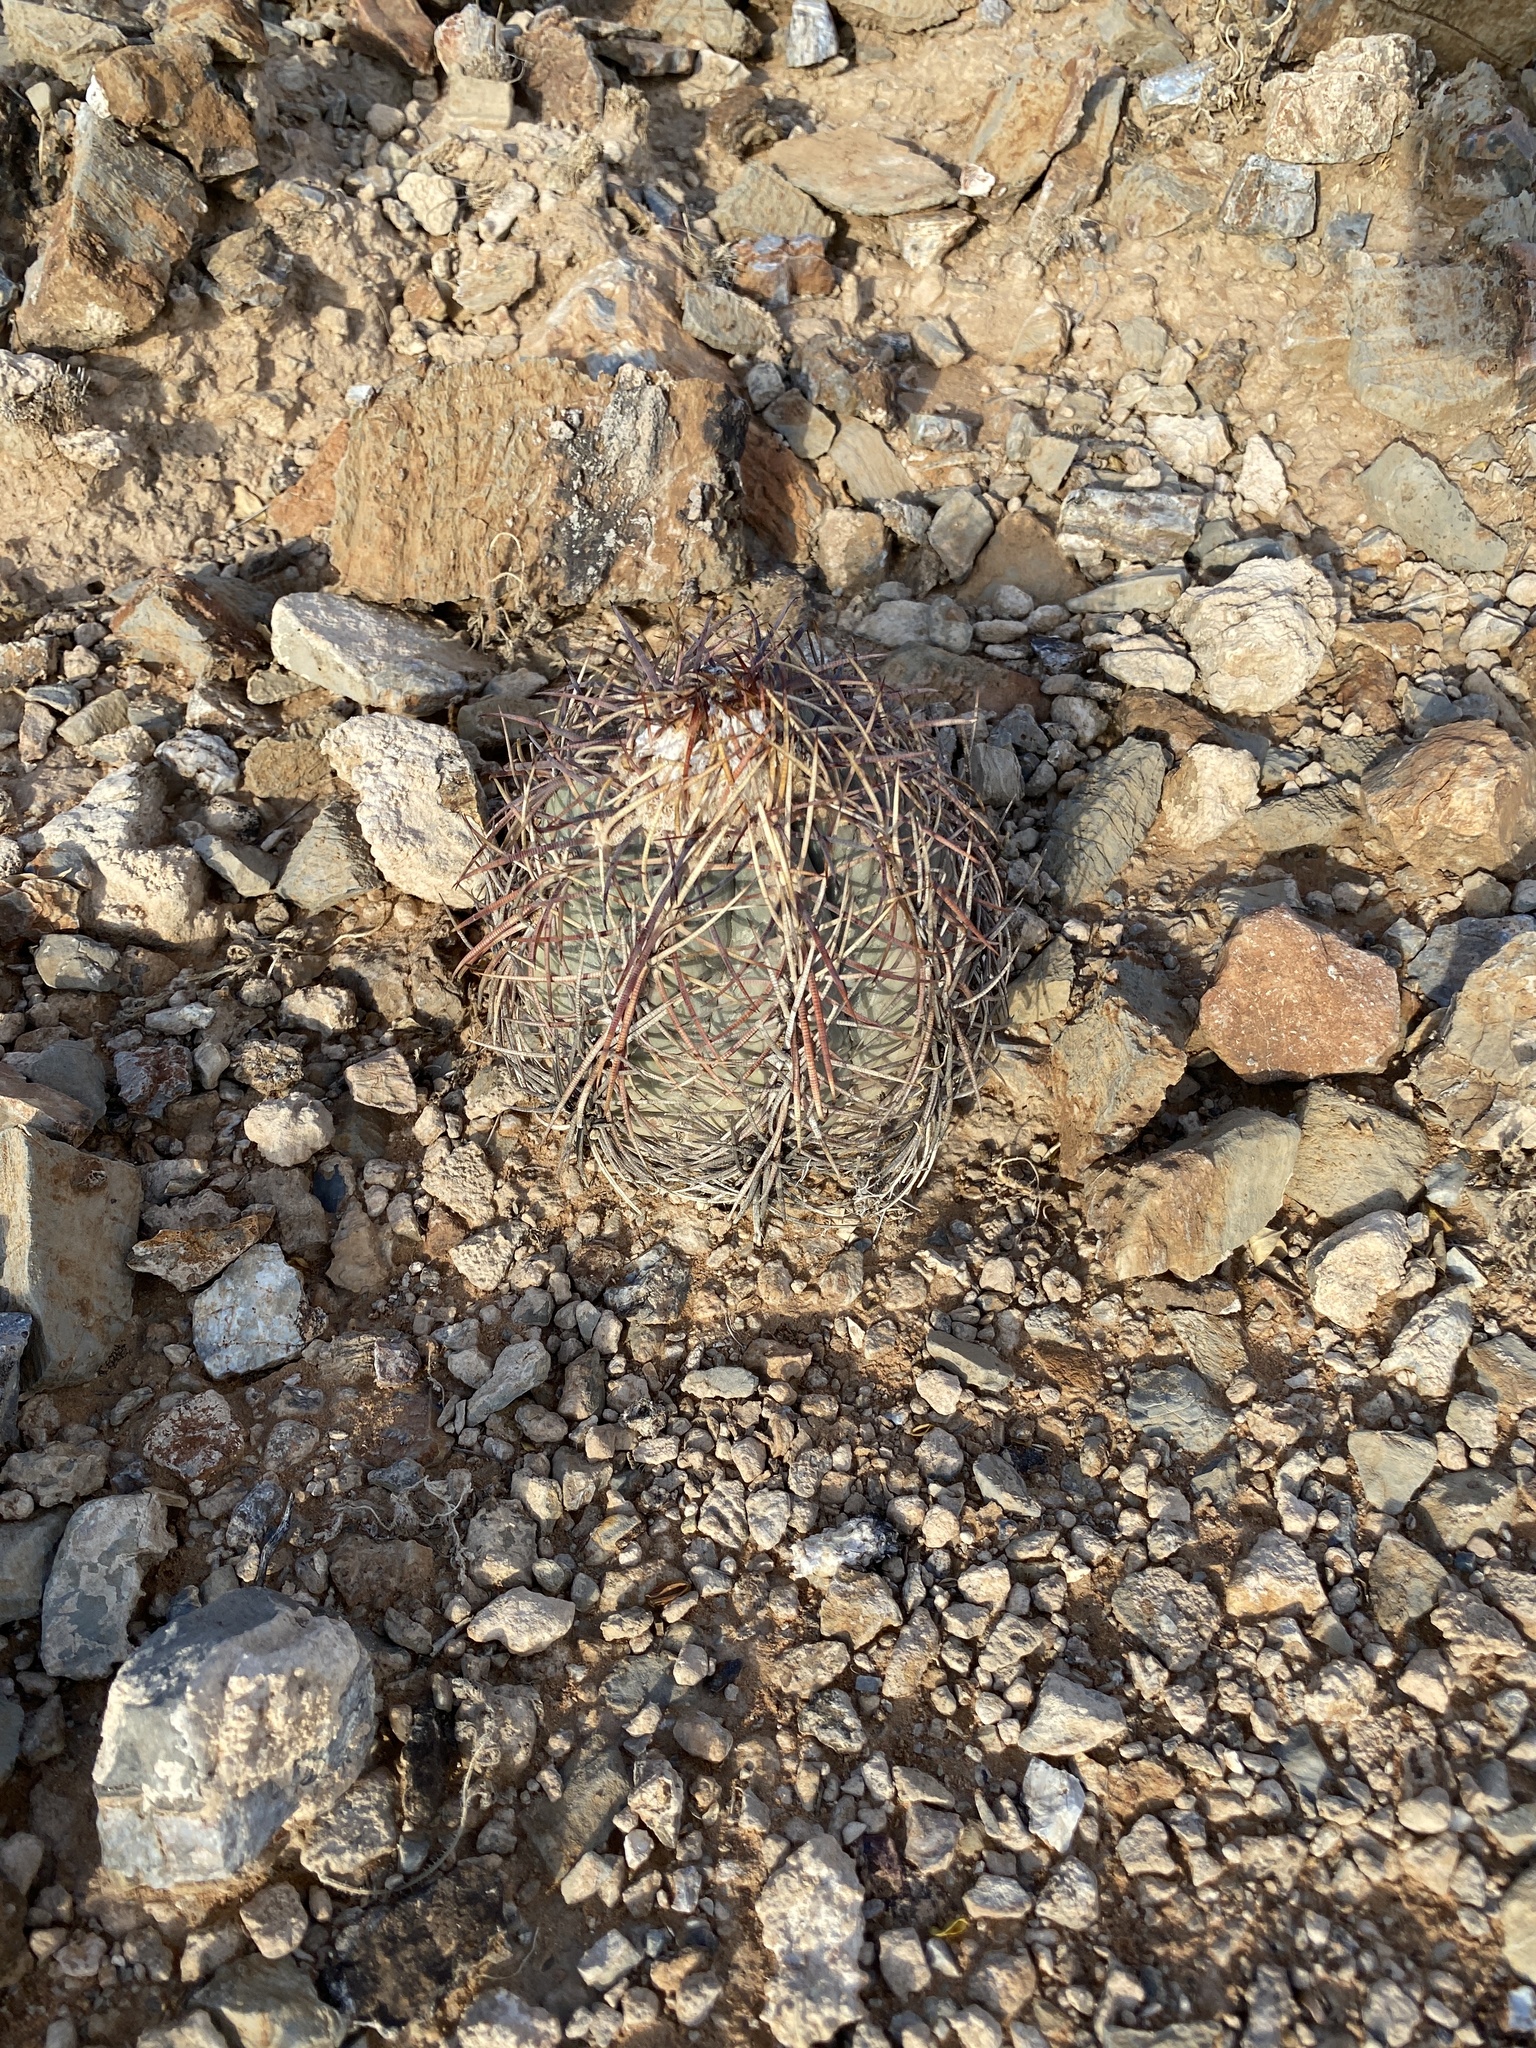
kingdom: Plantae
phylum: Tracheophyta
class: Magnoliopsida
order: Caryophyllales
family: Cactaceae
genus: Echinocactus
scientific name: Echinocactus horizonthalonius
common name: Devilshead
